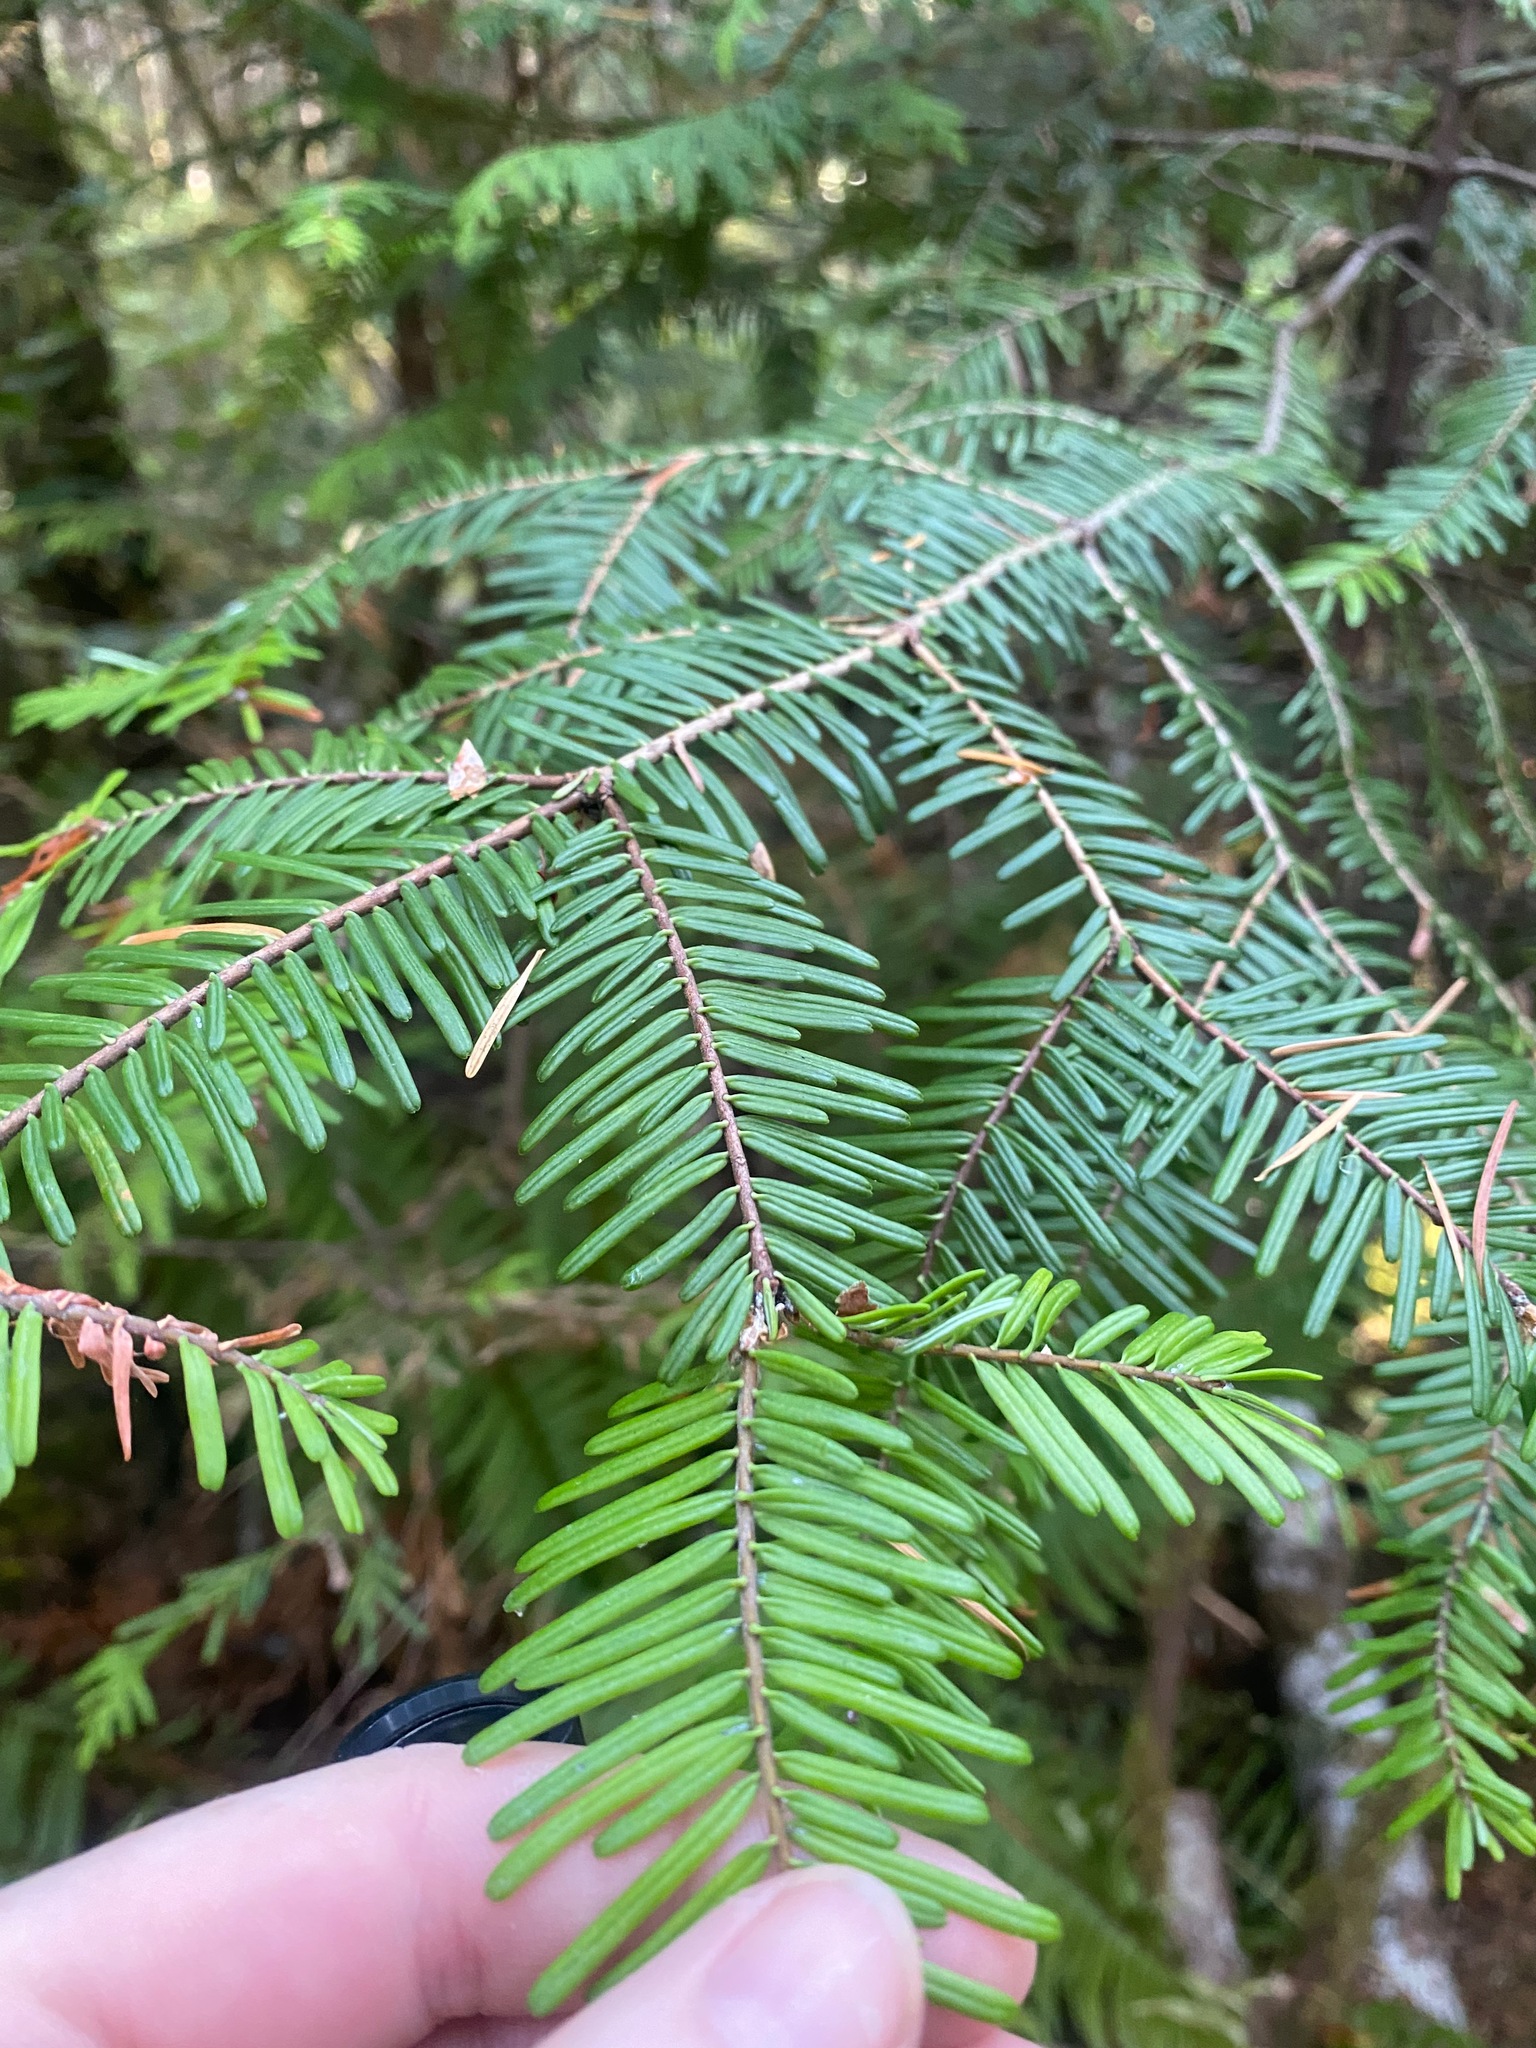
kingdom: Plantae
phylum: Tracheophyta
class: Pinopsida
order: Pinales
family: Pinaceae
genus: Abies
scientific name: Abies grandis
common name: Giant fir
